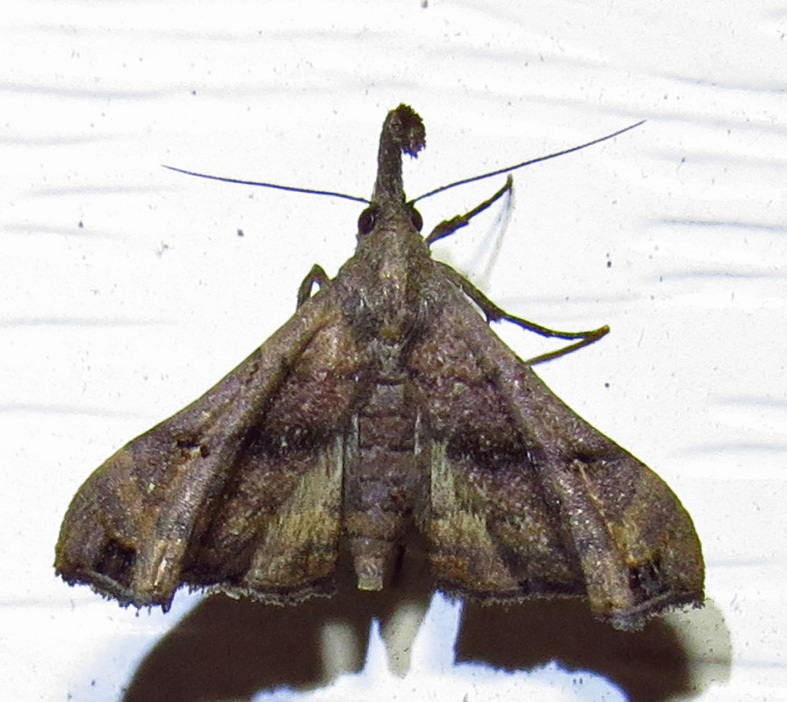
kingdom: Animalia
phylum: Arthropoda
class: Insecta
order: Lepidoptera
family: Erebidae
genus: Palthis
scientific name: Palthis asopialis
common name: Faint-spotted palthis moth
